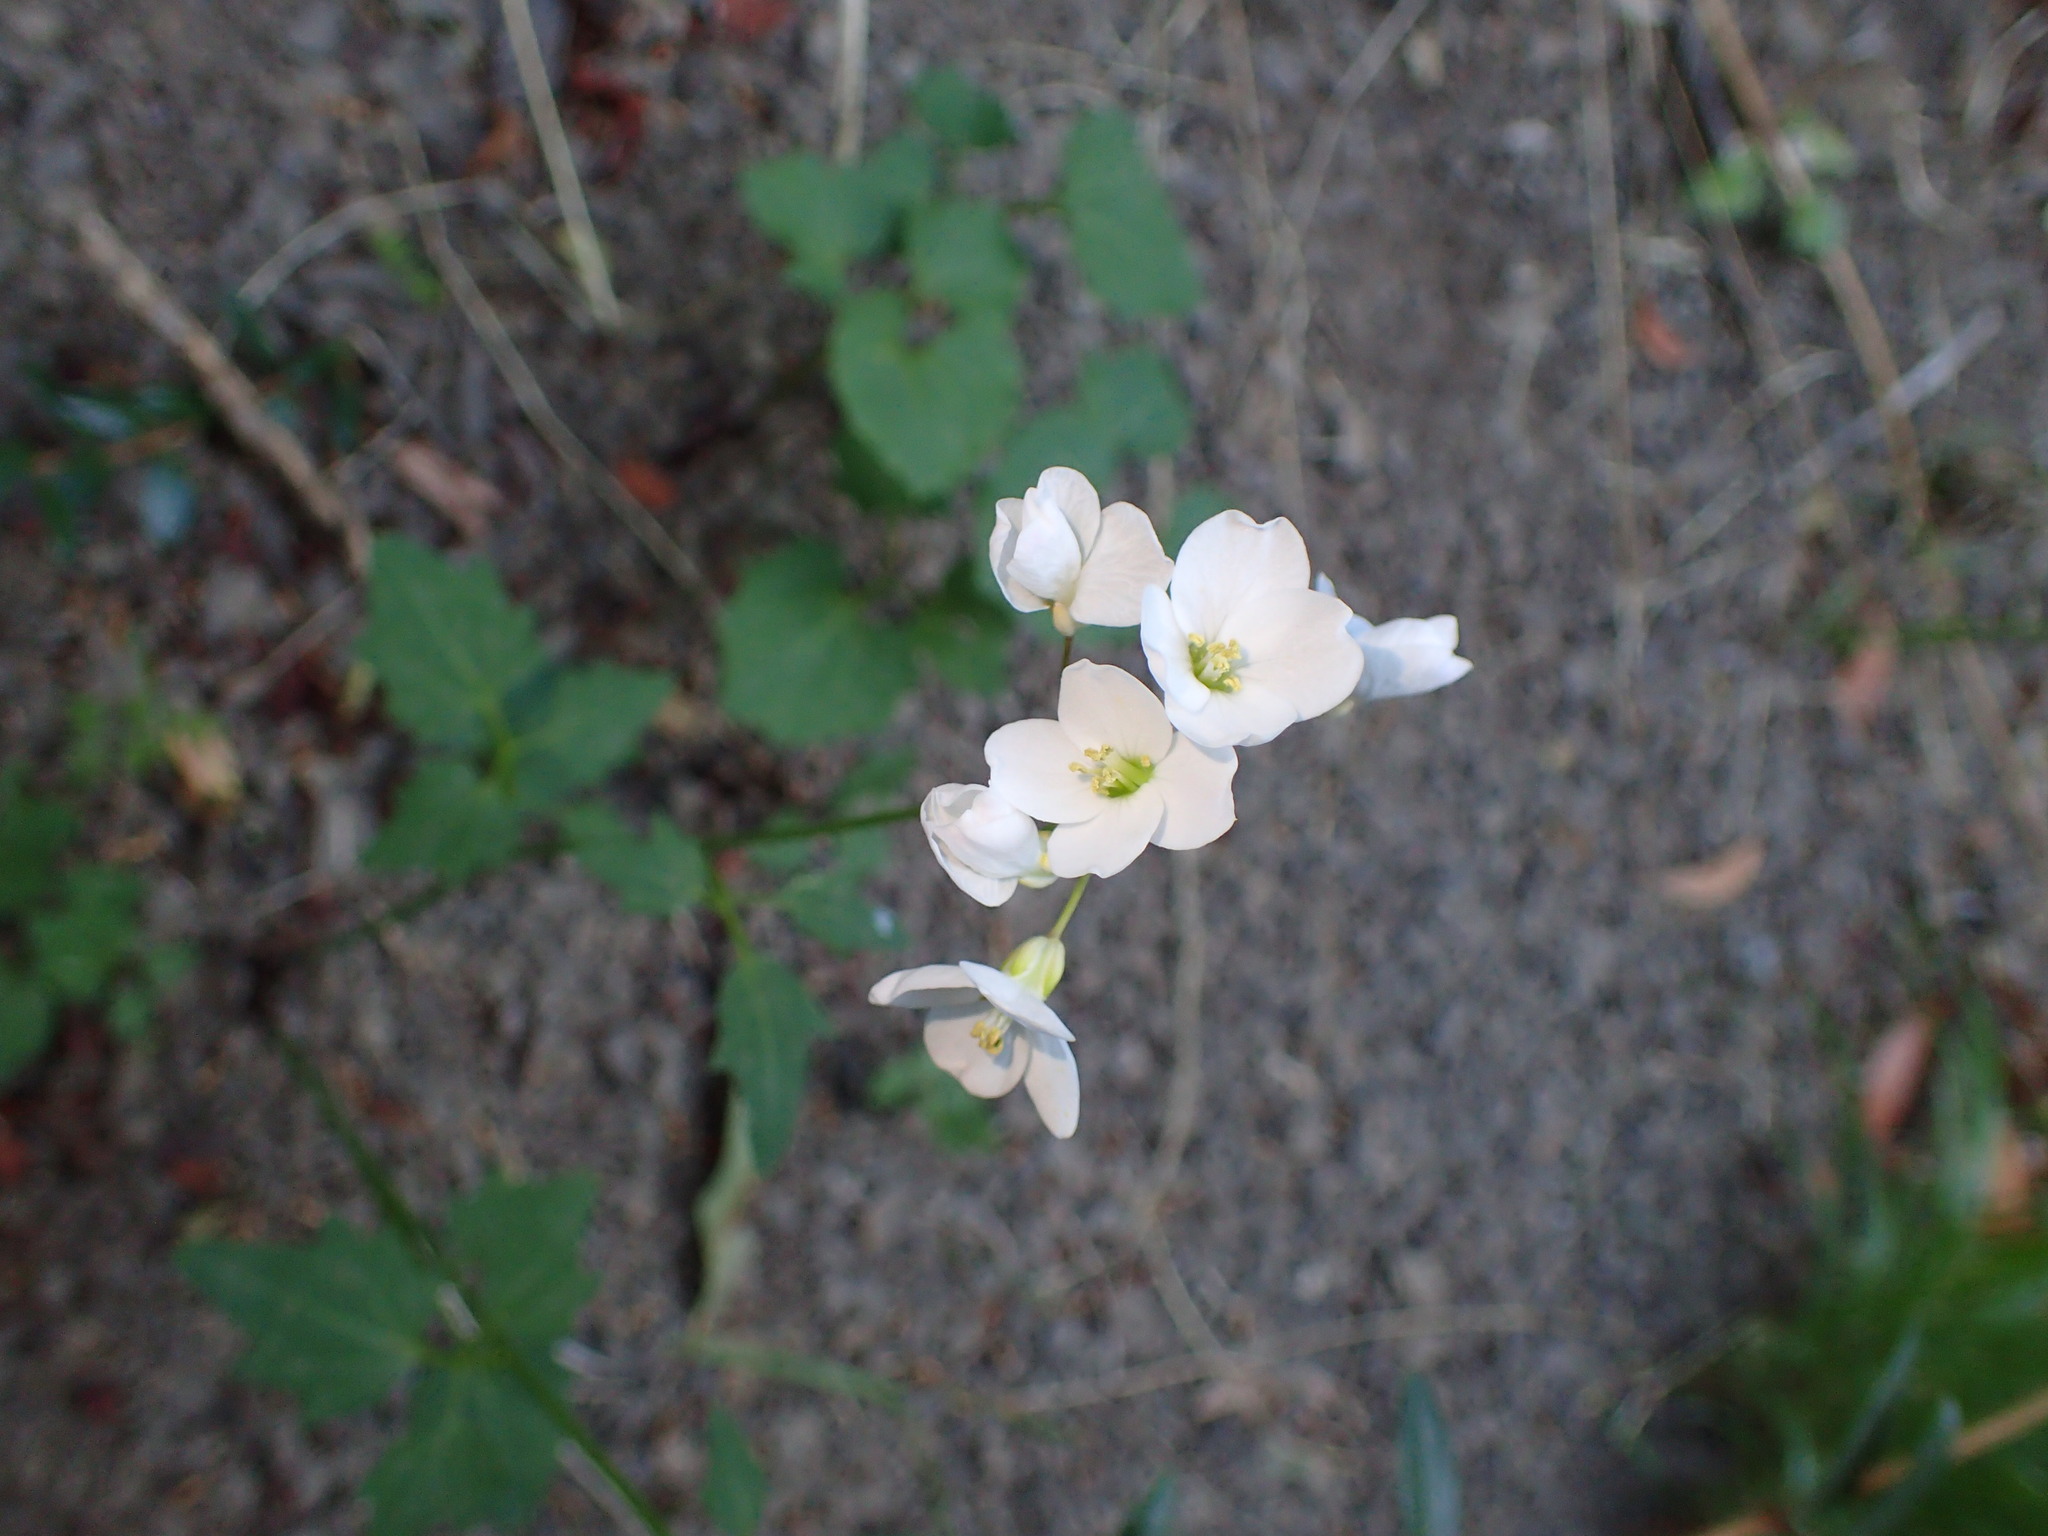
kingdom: Plantae
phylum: Tracheophyta
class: Magnoliopsida
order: Brassicales
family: Brassicaceae
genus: Cardamine
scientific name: Cardamine californica
